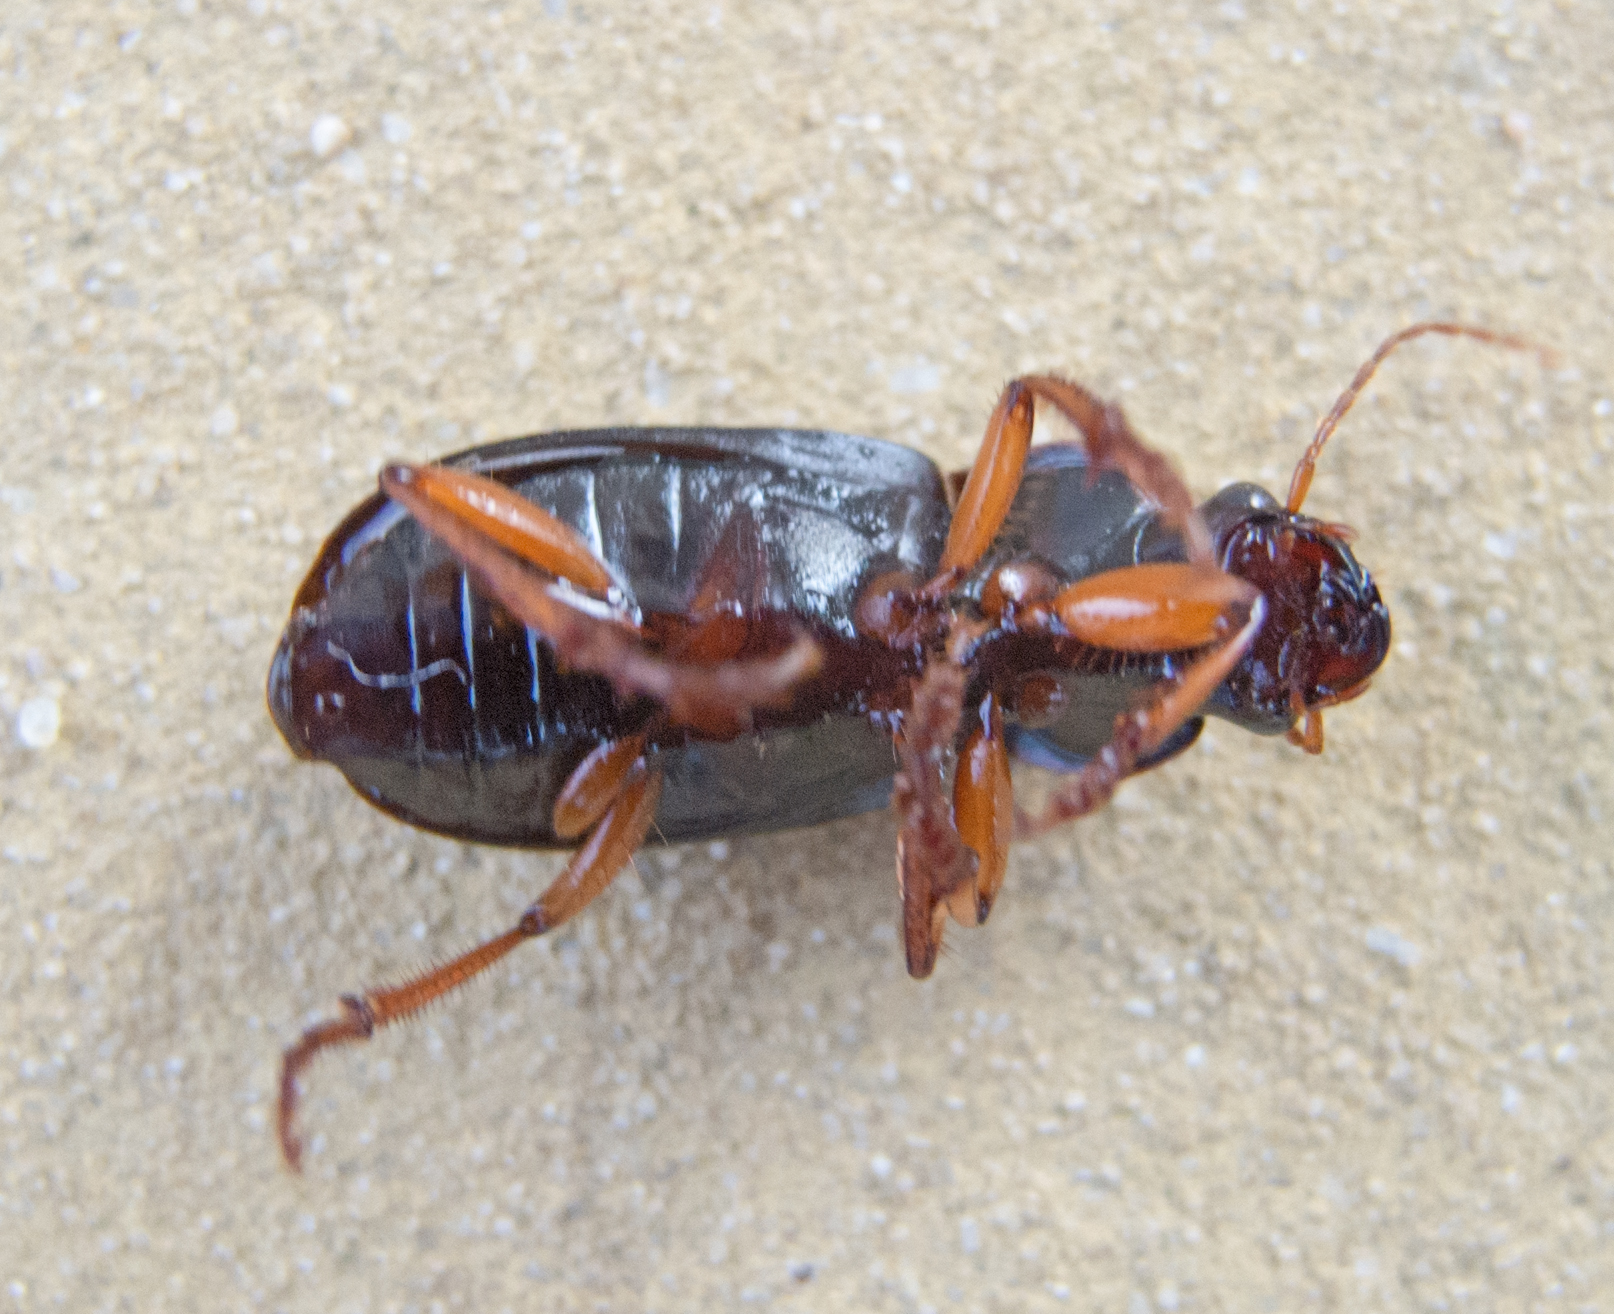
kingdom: Animalia
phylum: Arthropoda
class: Insecta
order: Coleoptera
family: Carabidae
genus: Harpalus
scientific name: Harpalus rufipes
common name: Strawberry harp ground beetle
